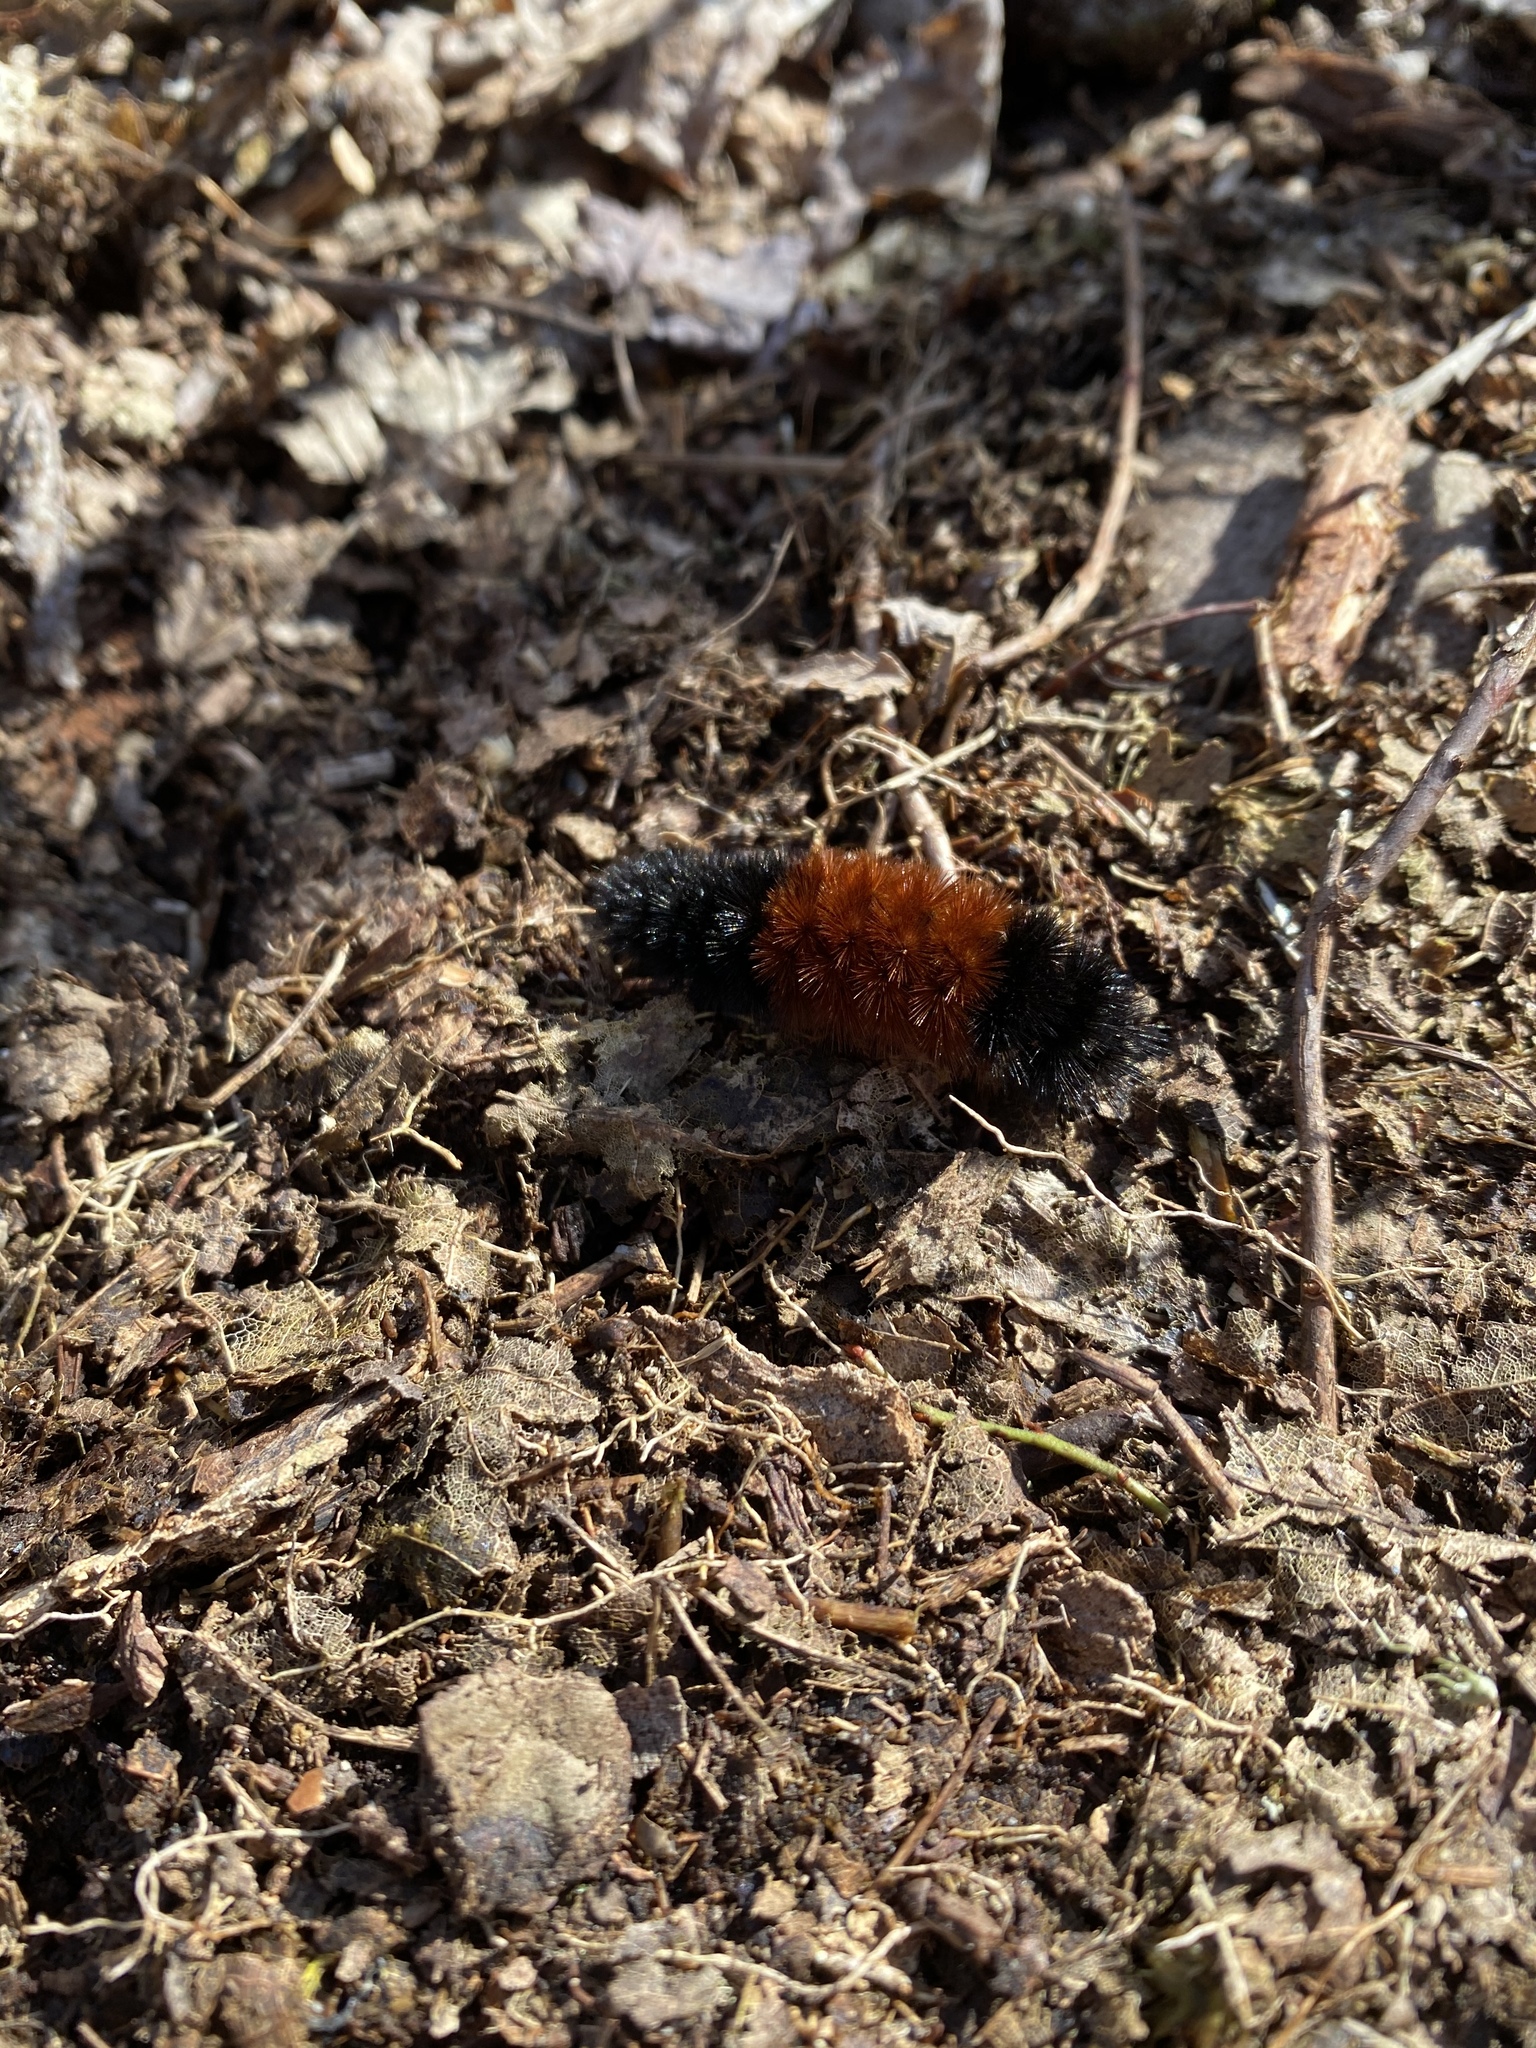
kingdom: Animalia
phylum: Arthropoda
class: Insecta
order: Lepidoptera
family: Erebidae
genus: Pyrrharctia
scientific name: Pyrrharctia isabella
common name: Isabella tiger moth
